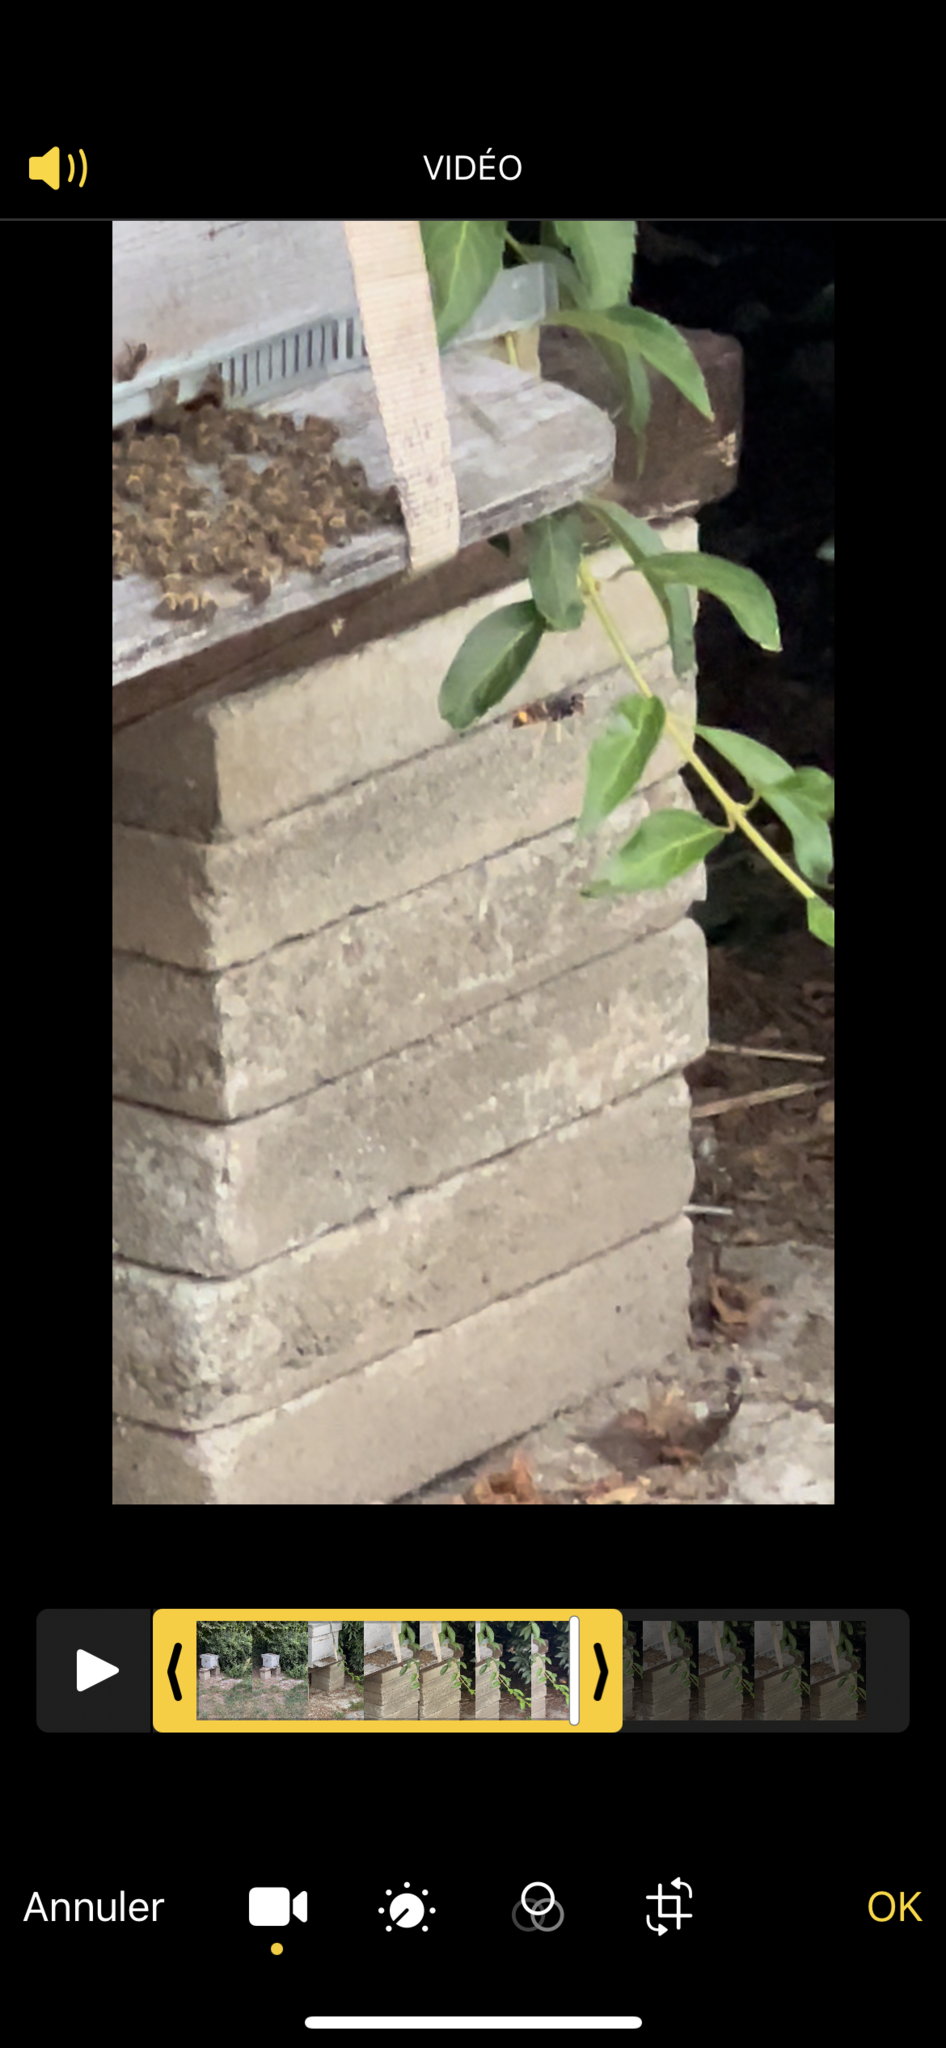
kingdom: Animalia
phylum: Arthropoda
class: Insecta
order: Hymenoptera
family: Vespidae
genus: Vespa
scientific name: Vespa velutina
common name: Asian hornet
